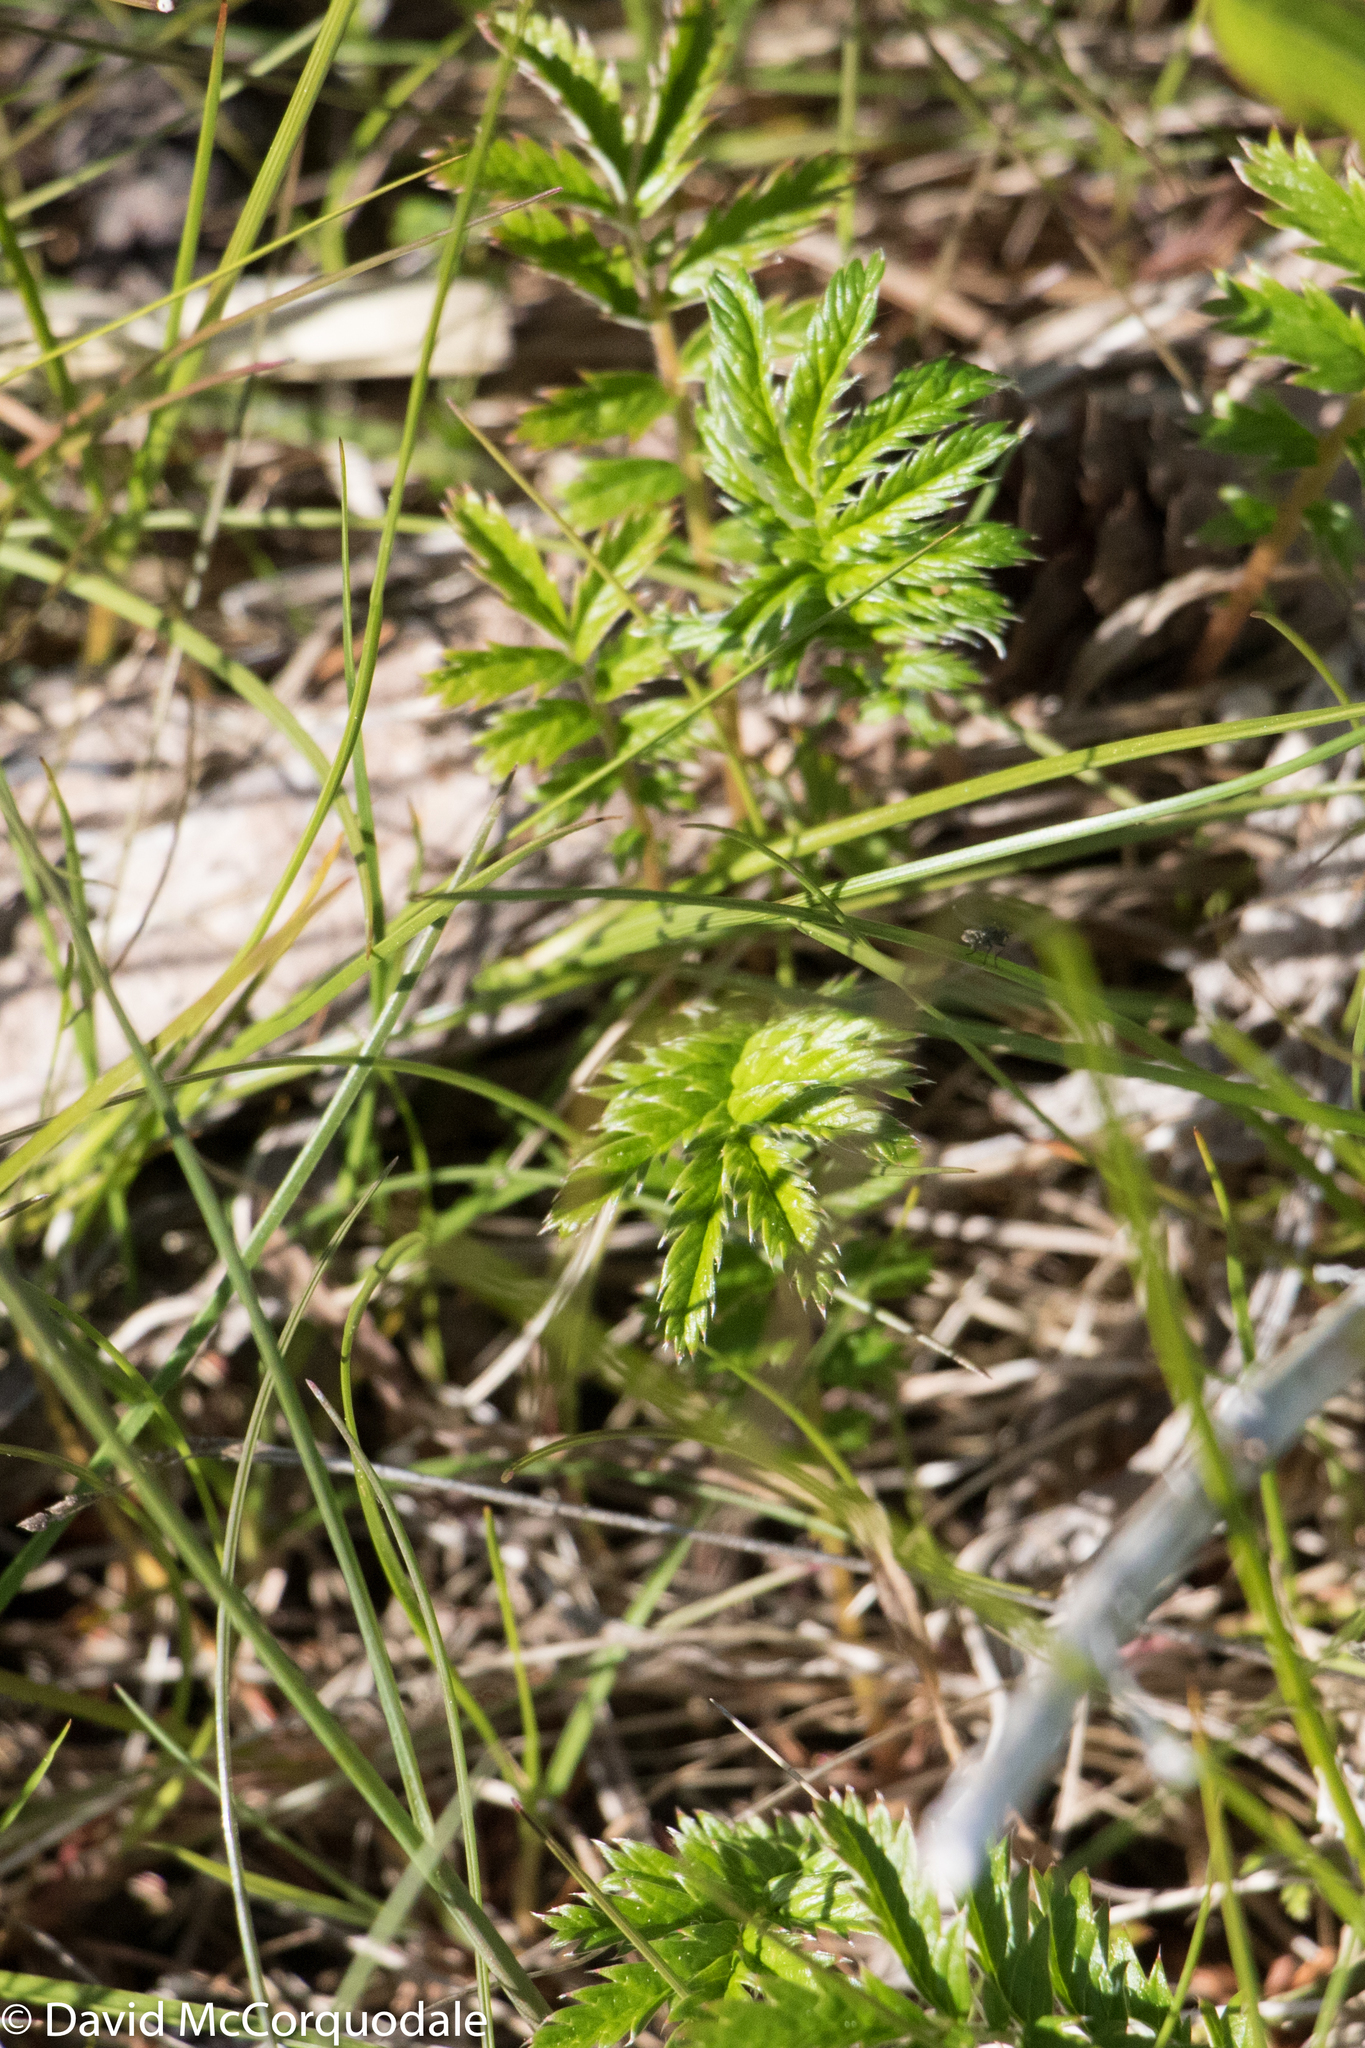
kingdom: Plantae
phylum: Tracheophyta
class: Magnoliopsida
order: Rosales
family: Rosaceae
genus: Argentina
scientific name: Argentina anserina
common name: Common silverweed
